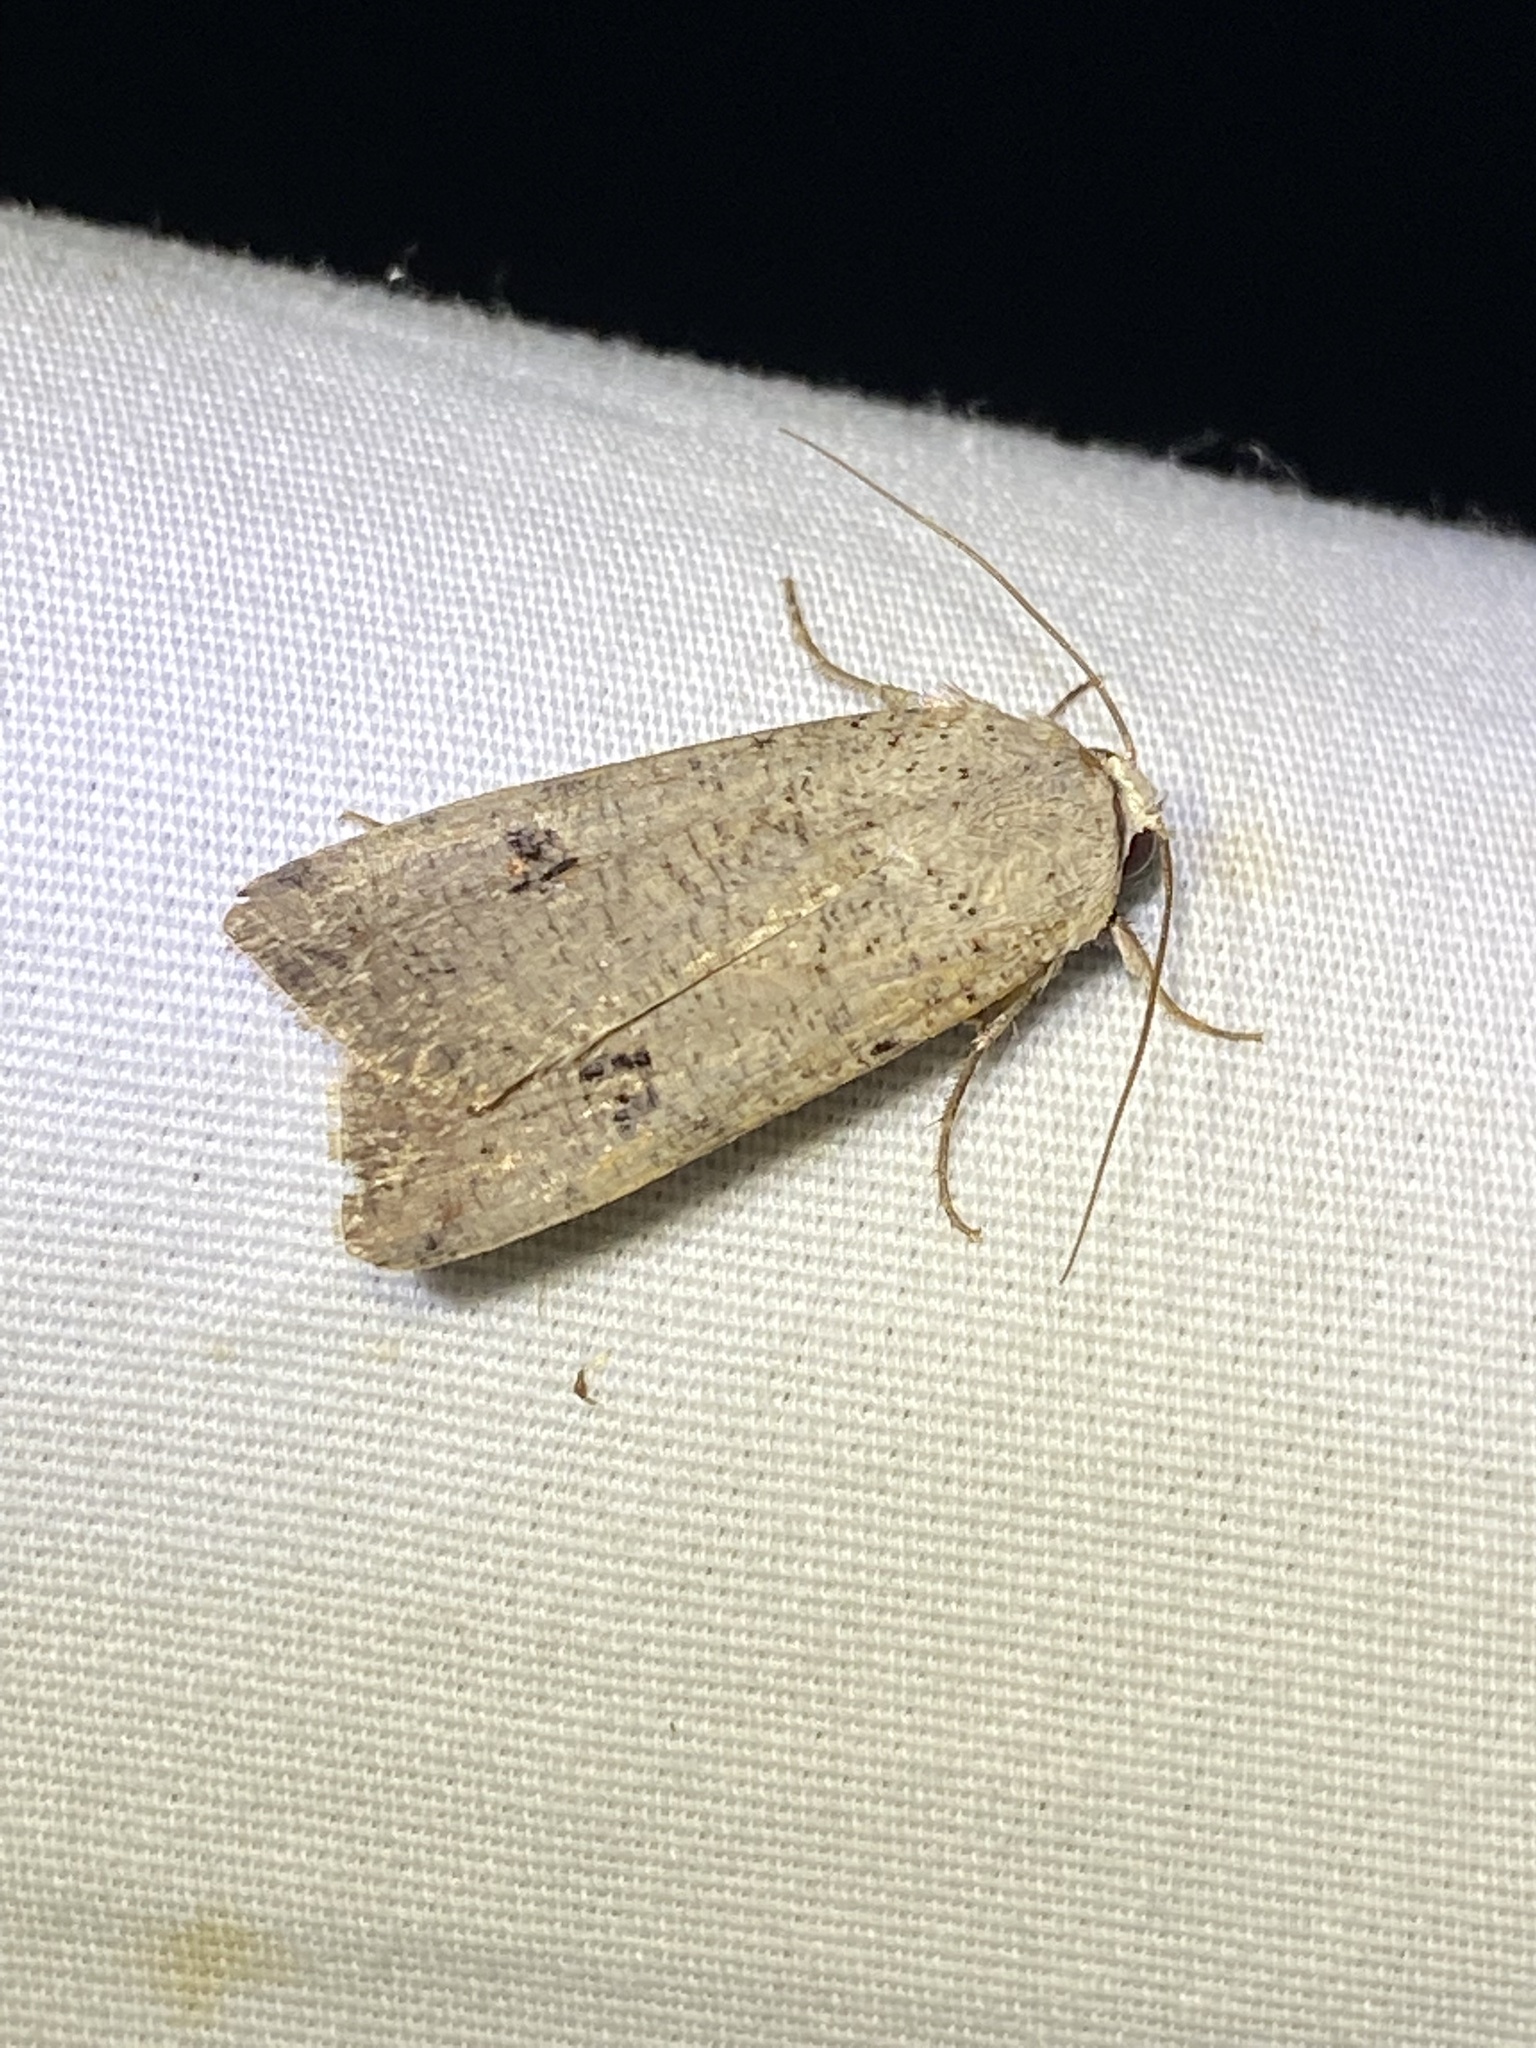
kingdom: Animalia
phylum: Arthropoda
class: Insecta
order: Lepidoptera
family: Noctuidae
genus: Anicla
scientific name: Anicla infecta
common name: Green cutworm
